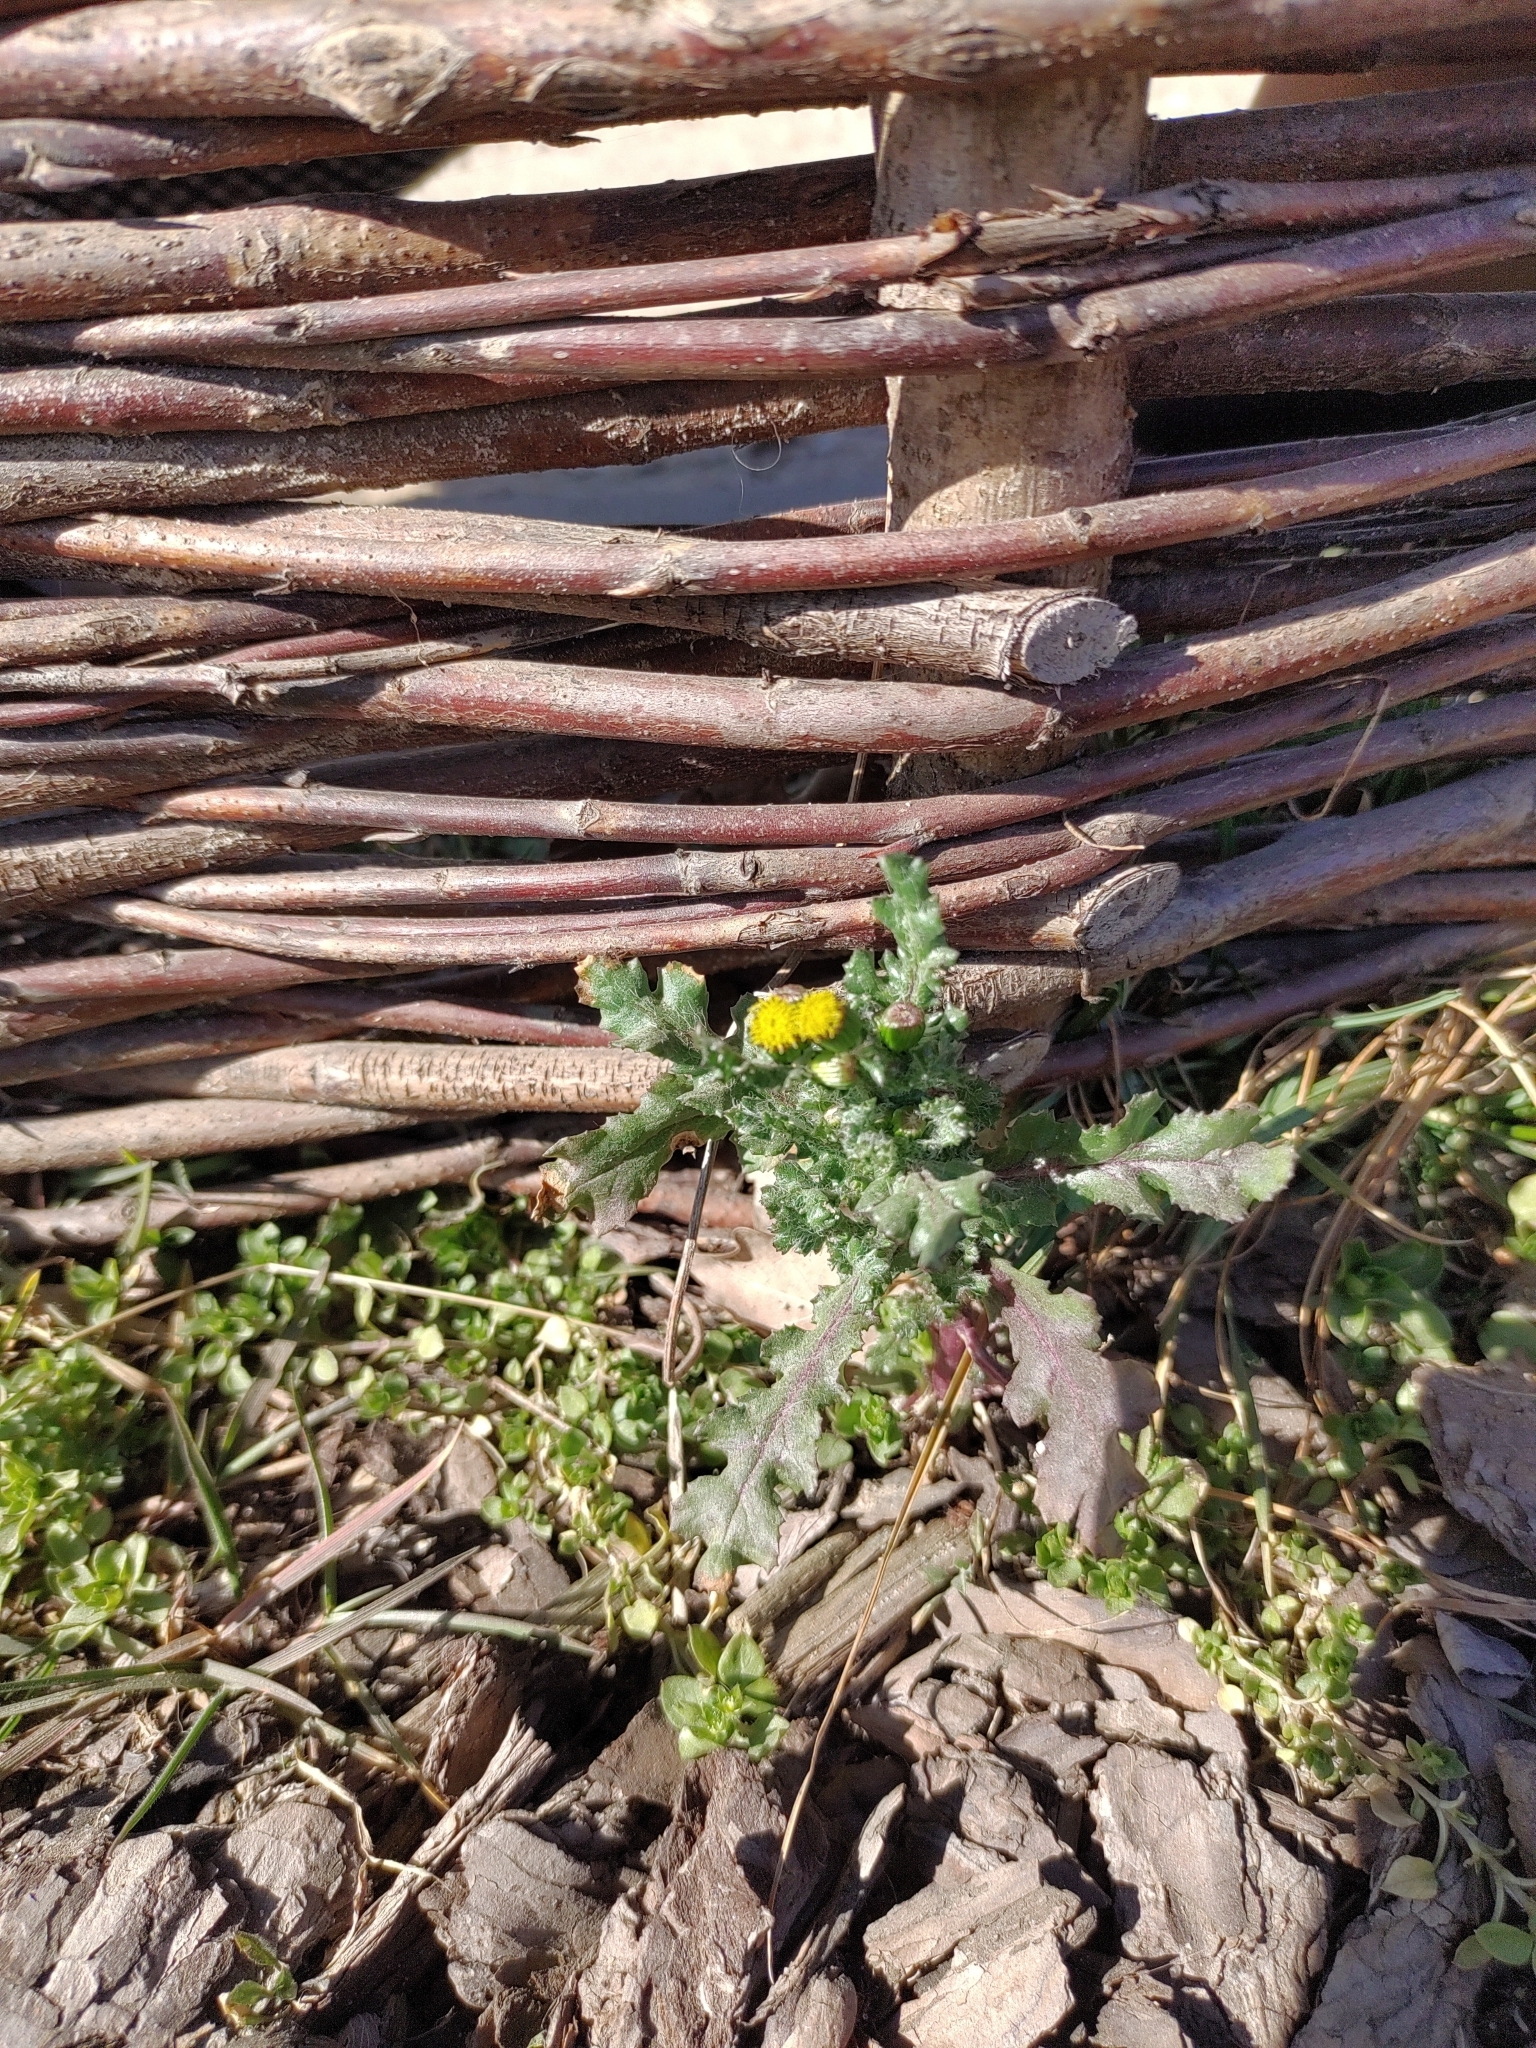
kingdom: Plantae
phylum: Tracheophyta
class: Magnoliopsida
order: Asterales
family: Asteraceae
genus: Senecio
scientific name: Senecio vulgaris
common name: Old-man-in-the-spring
